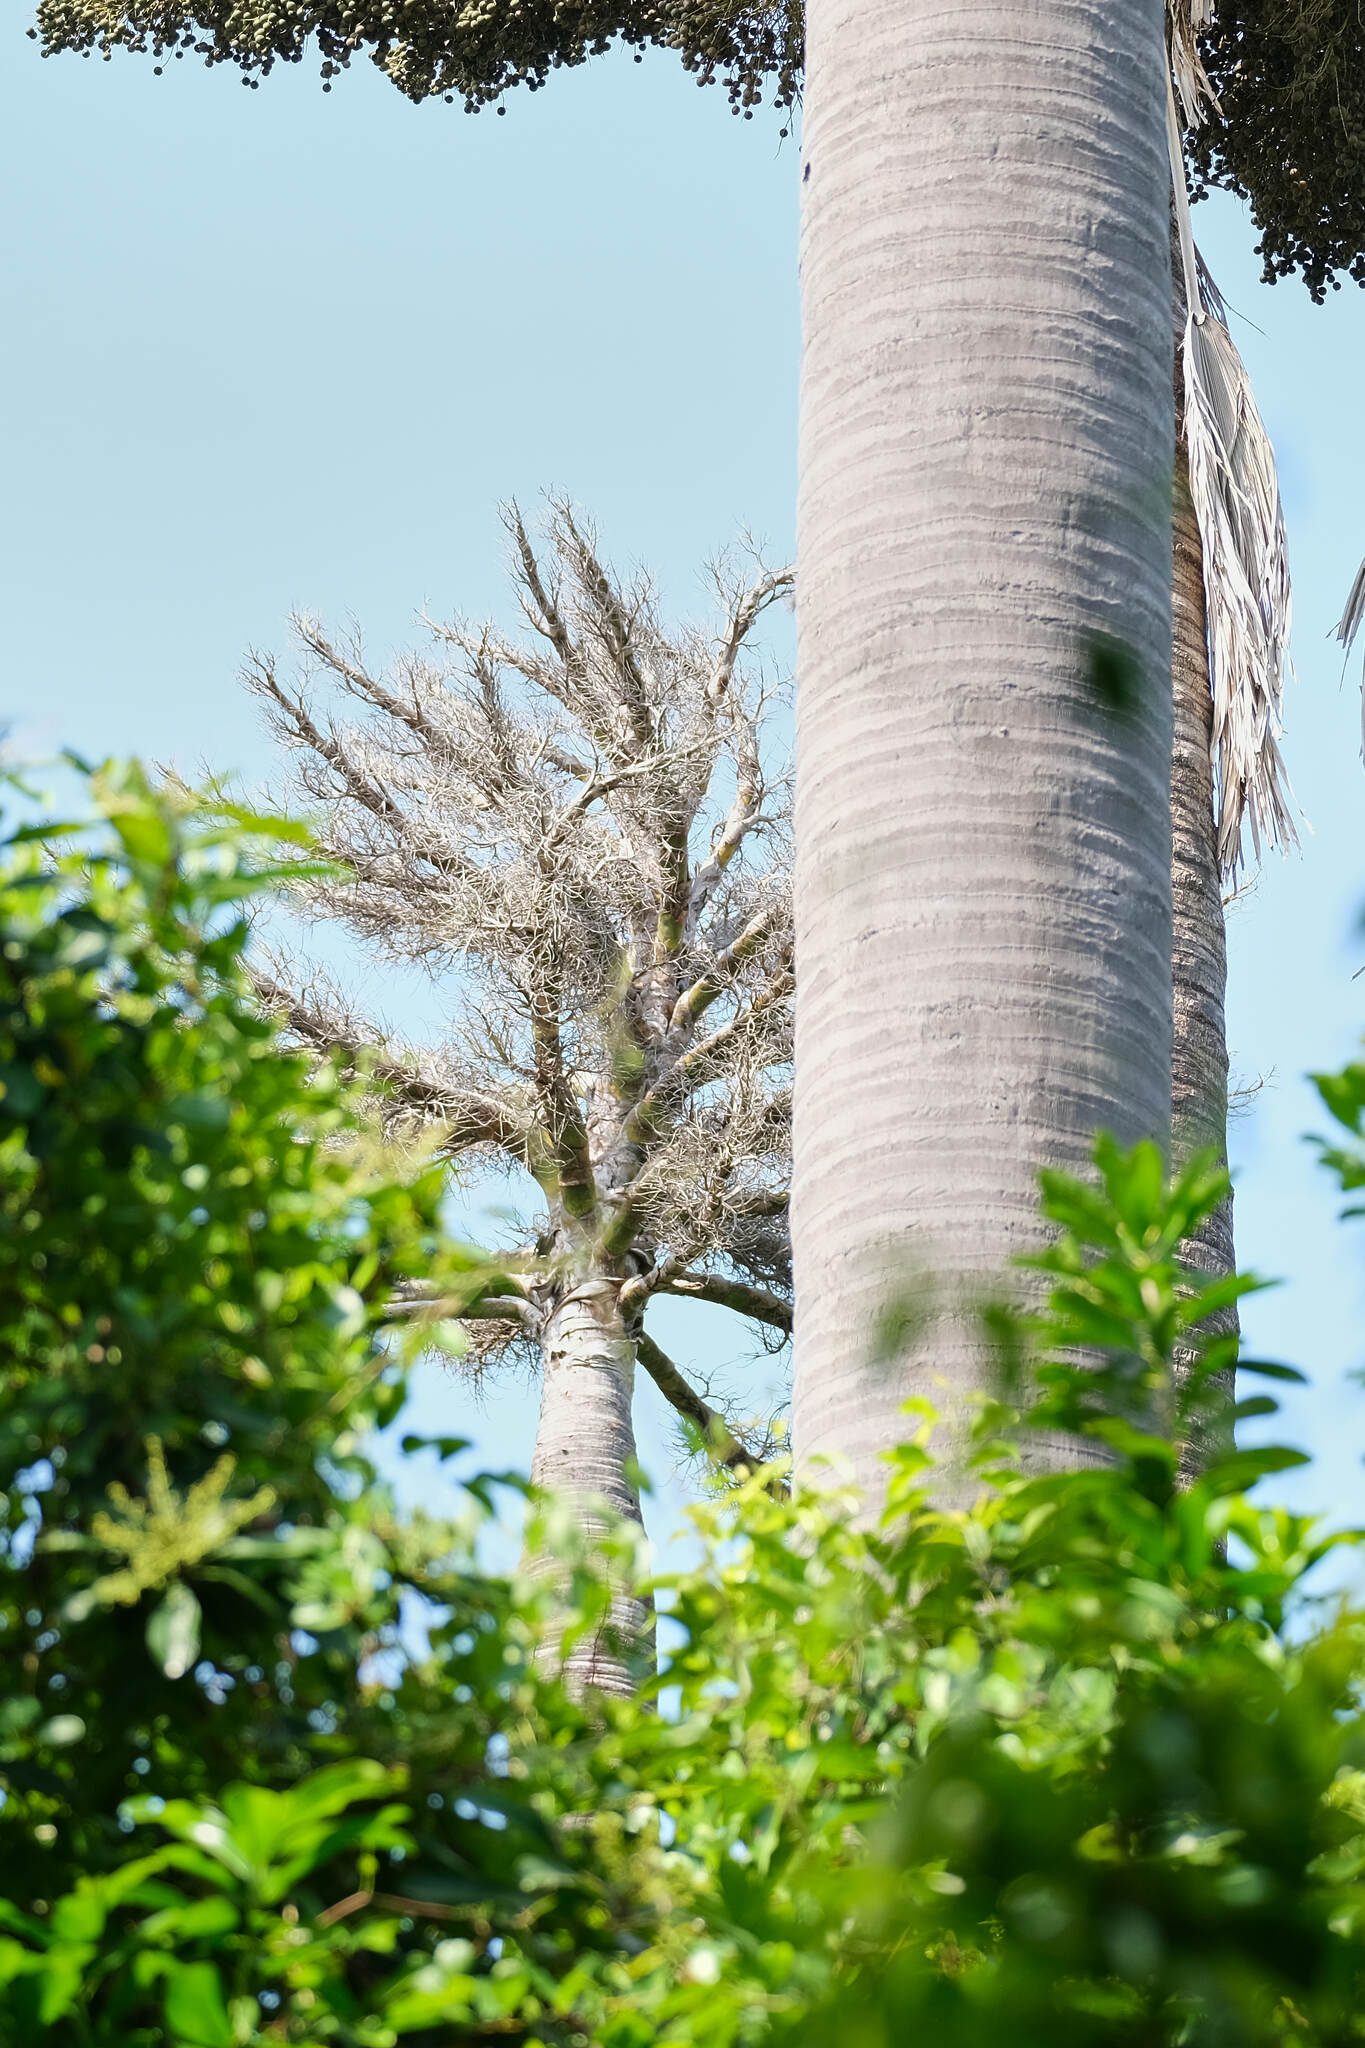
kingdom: Plantae
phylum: Tracheophyta
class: Liliopsida
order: Arecales
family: Arecaceae
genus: Corypha
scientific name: Corypha utan
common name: Buri palm
